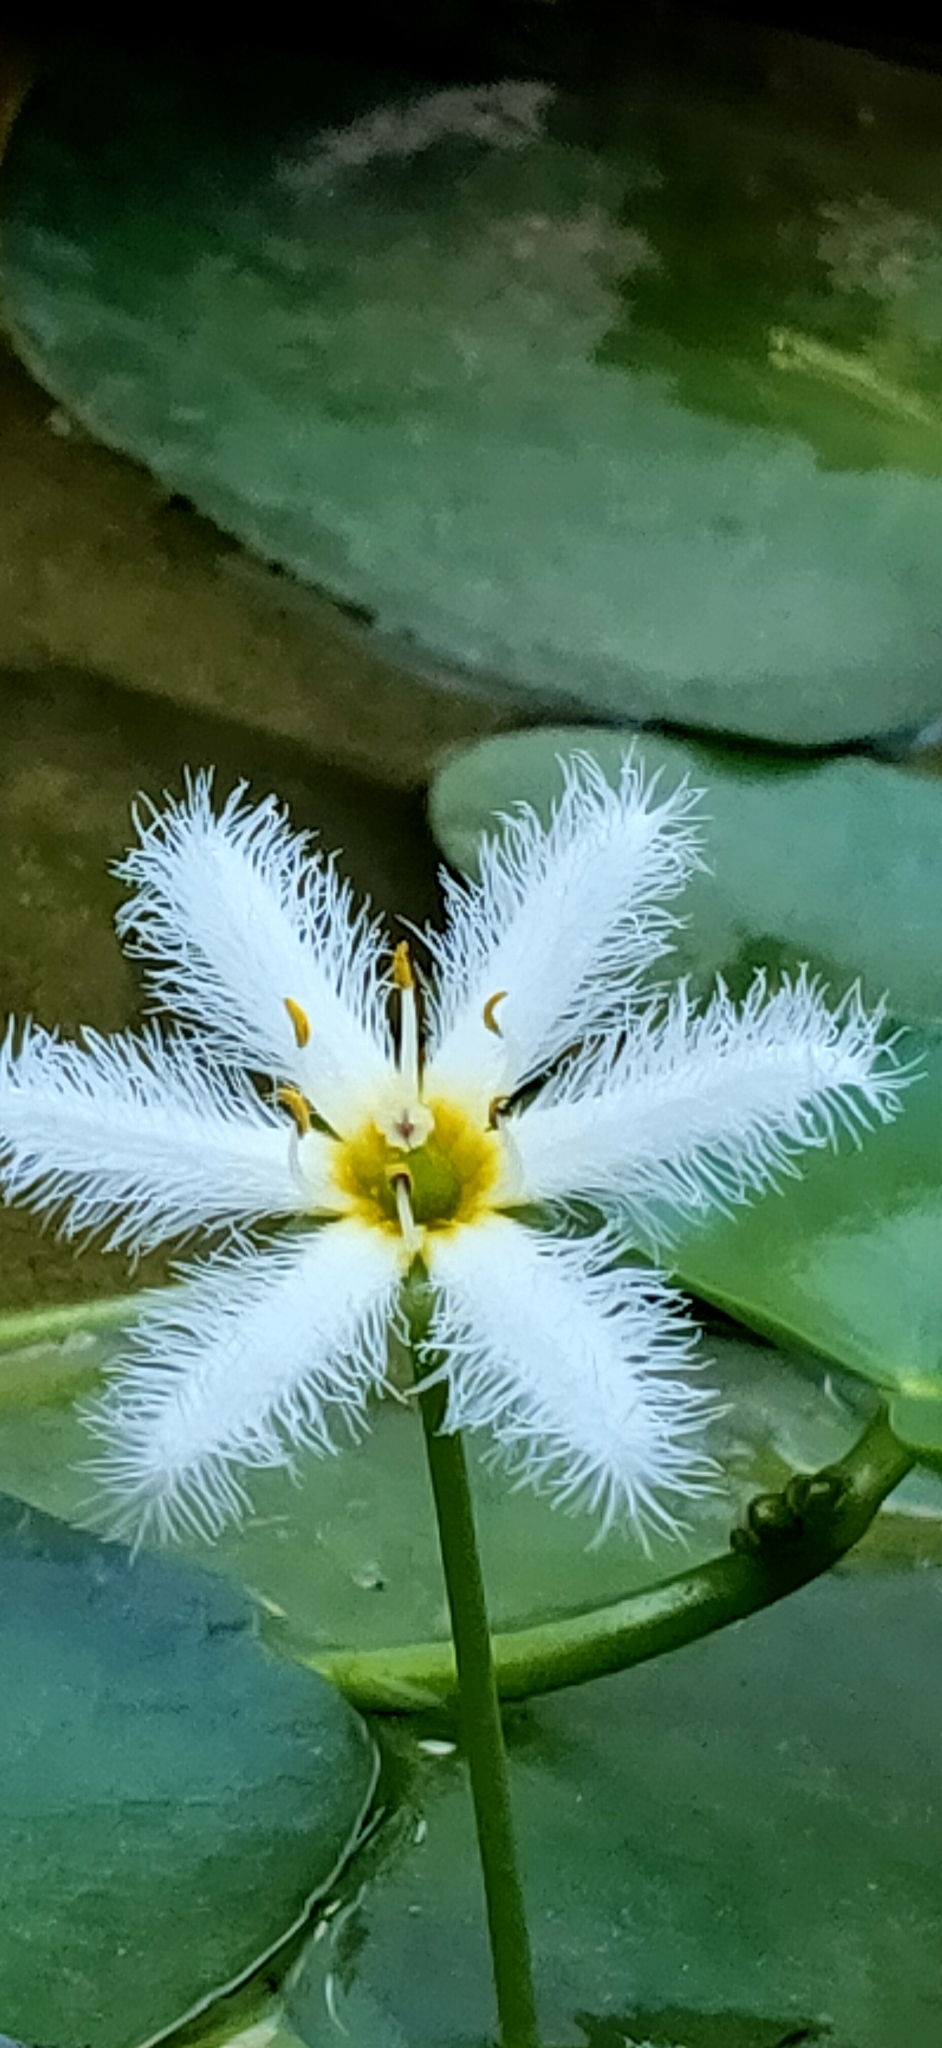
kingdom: Plantae
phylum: Tracheophyta
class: Magnoliopsida
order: Asterales
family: Menyanthaceae
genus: Nymphoides
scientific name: Nymphoides indica
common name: Water-snowflake
